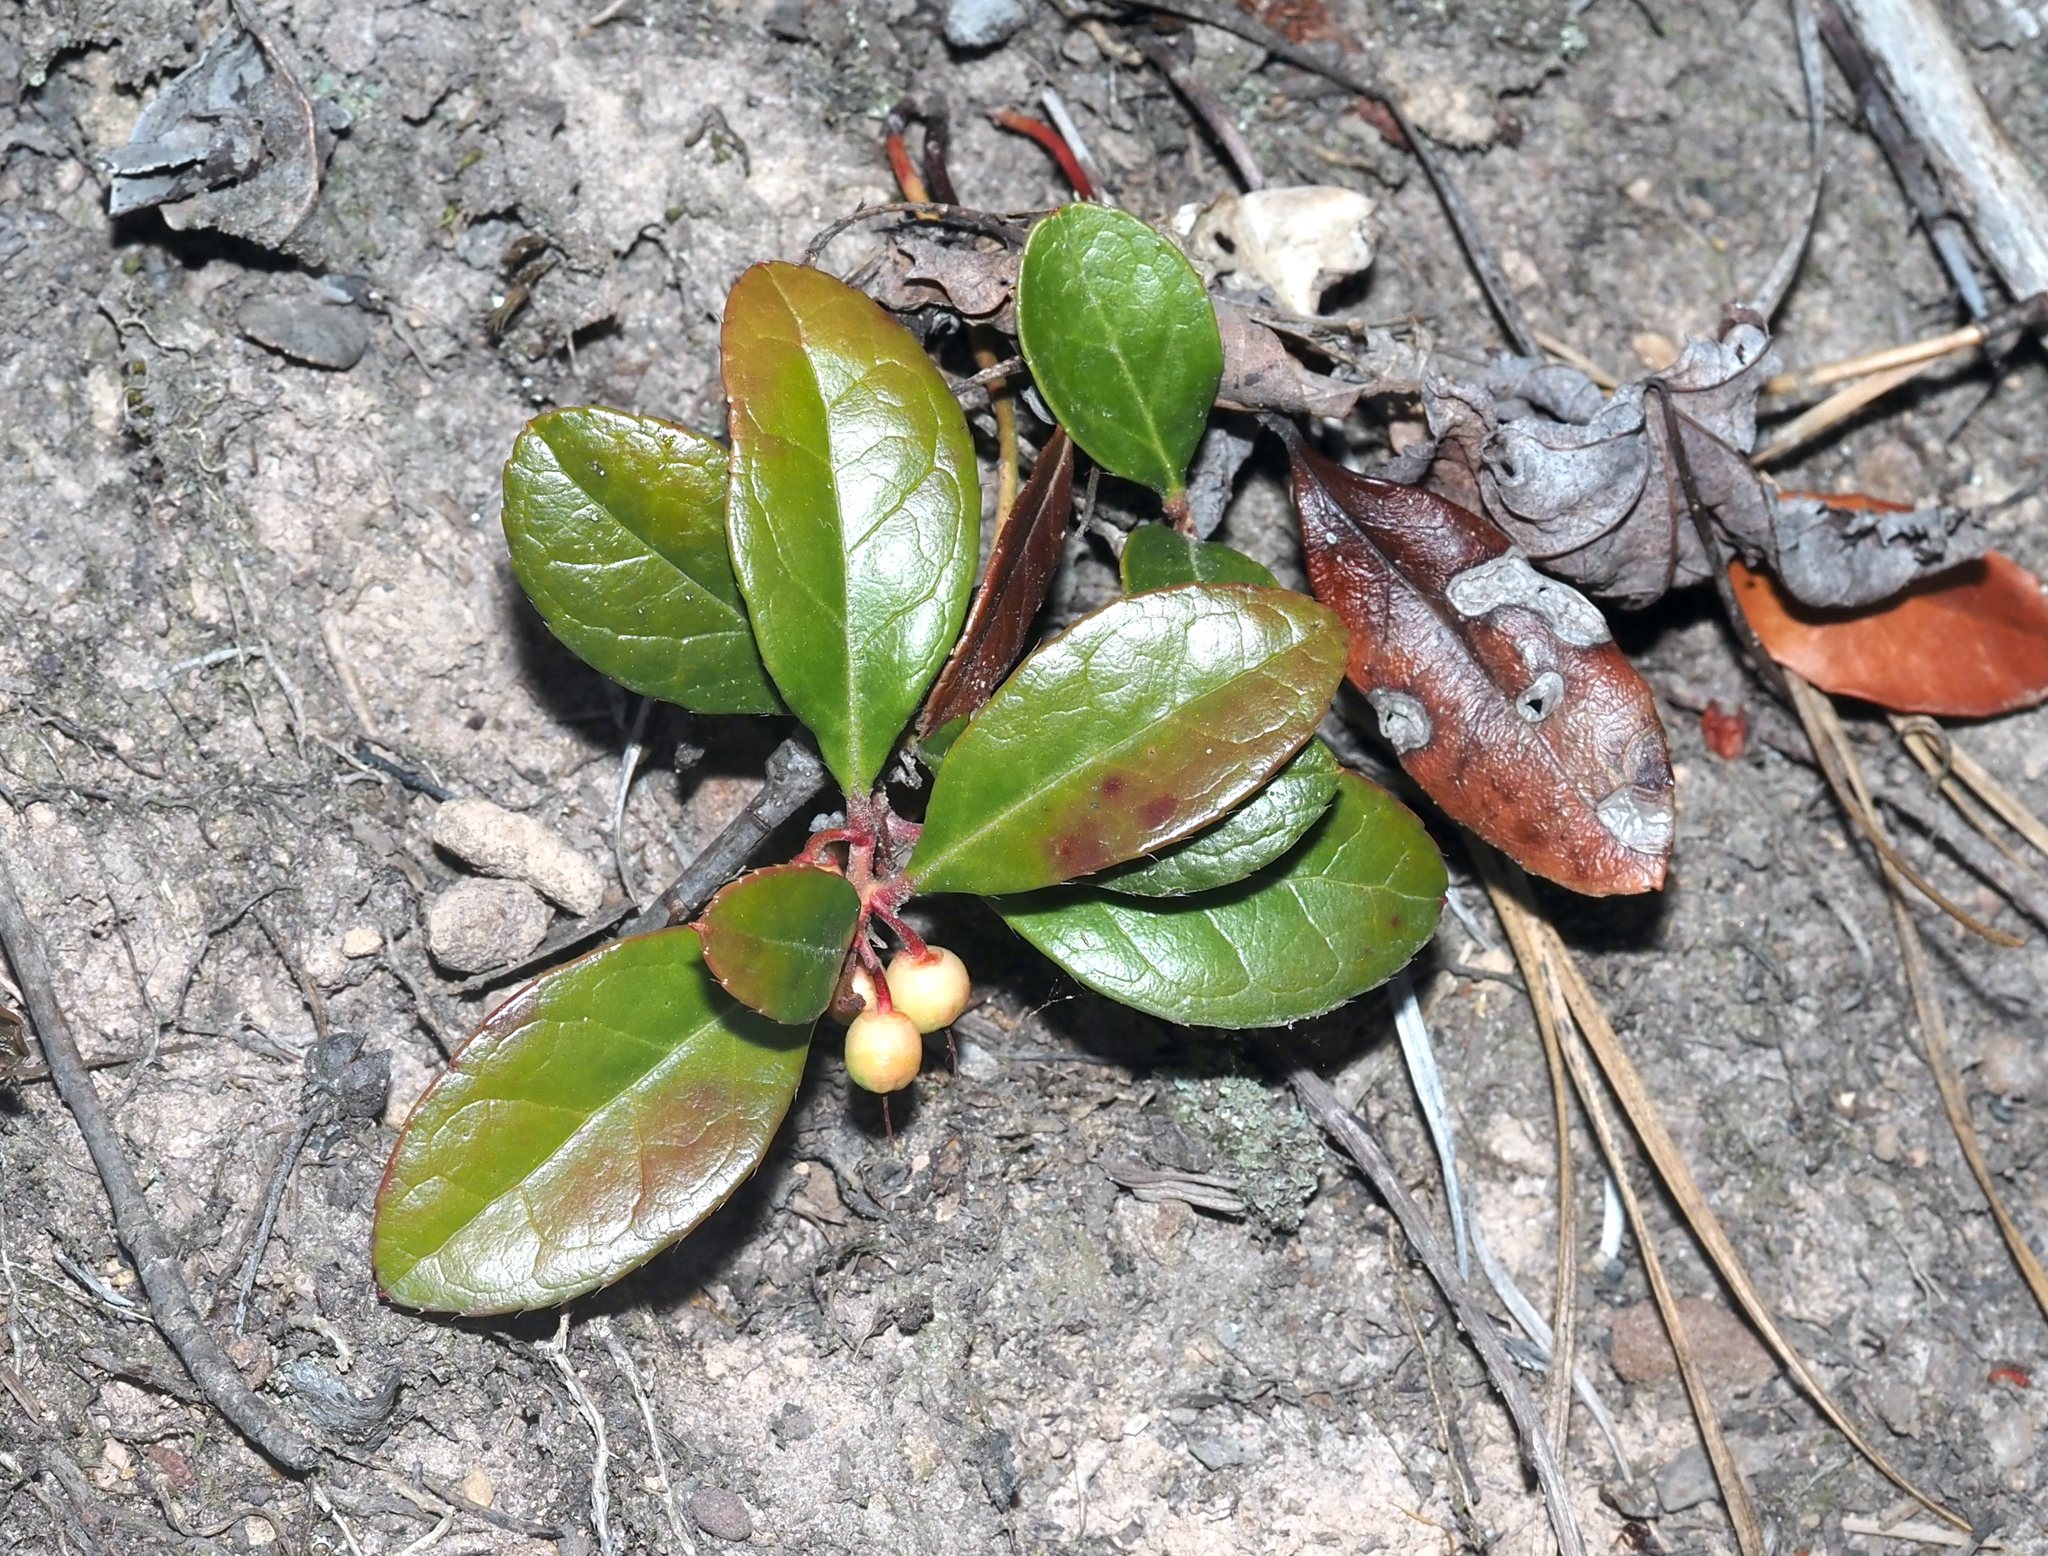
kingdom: Plantae
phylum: Tracheophyta
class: Magnoliopsida
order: Ericales
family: Ericaceae
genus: Gaultheria
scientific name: Gaultheria procumbens
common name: Checkerberry
